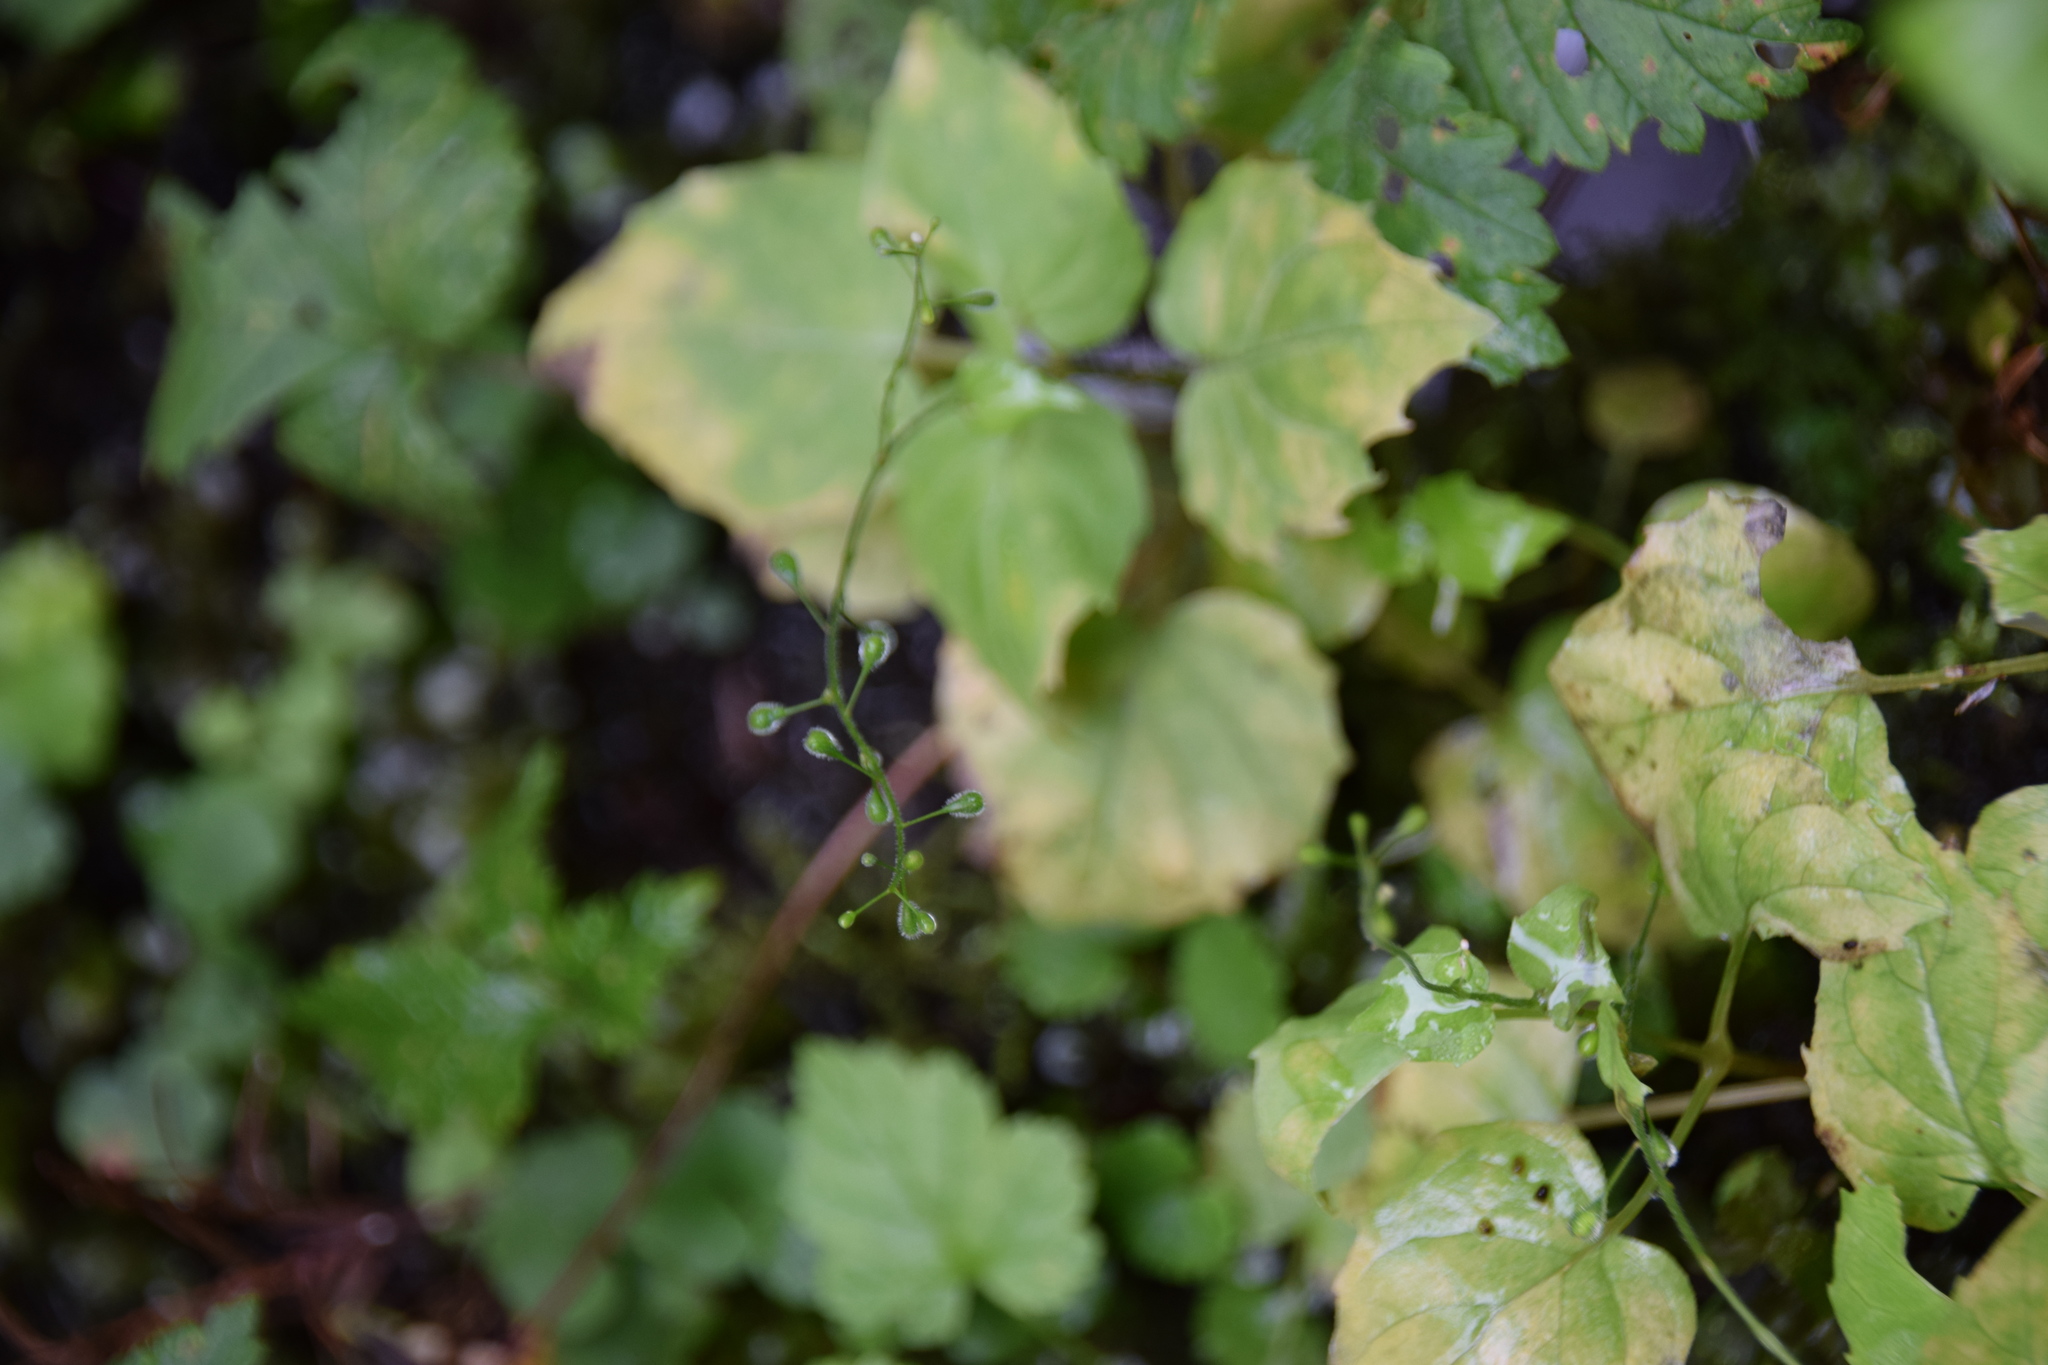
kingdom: Plantae
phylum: Tracheophyta
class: Magnoliopsida
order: Myrtales
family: Onagraceae
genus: Circaea
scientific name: Circaea alpina
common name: Alpine enchanter's-nightshade
